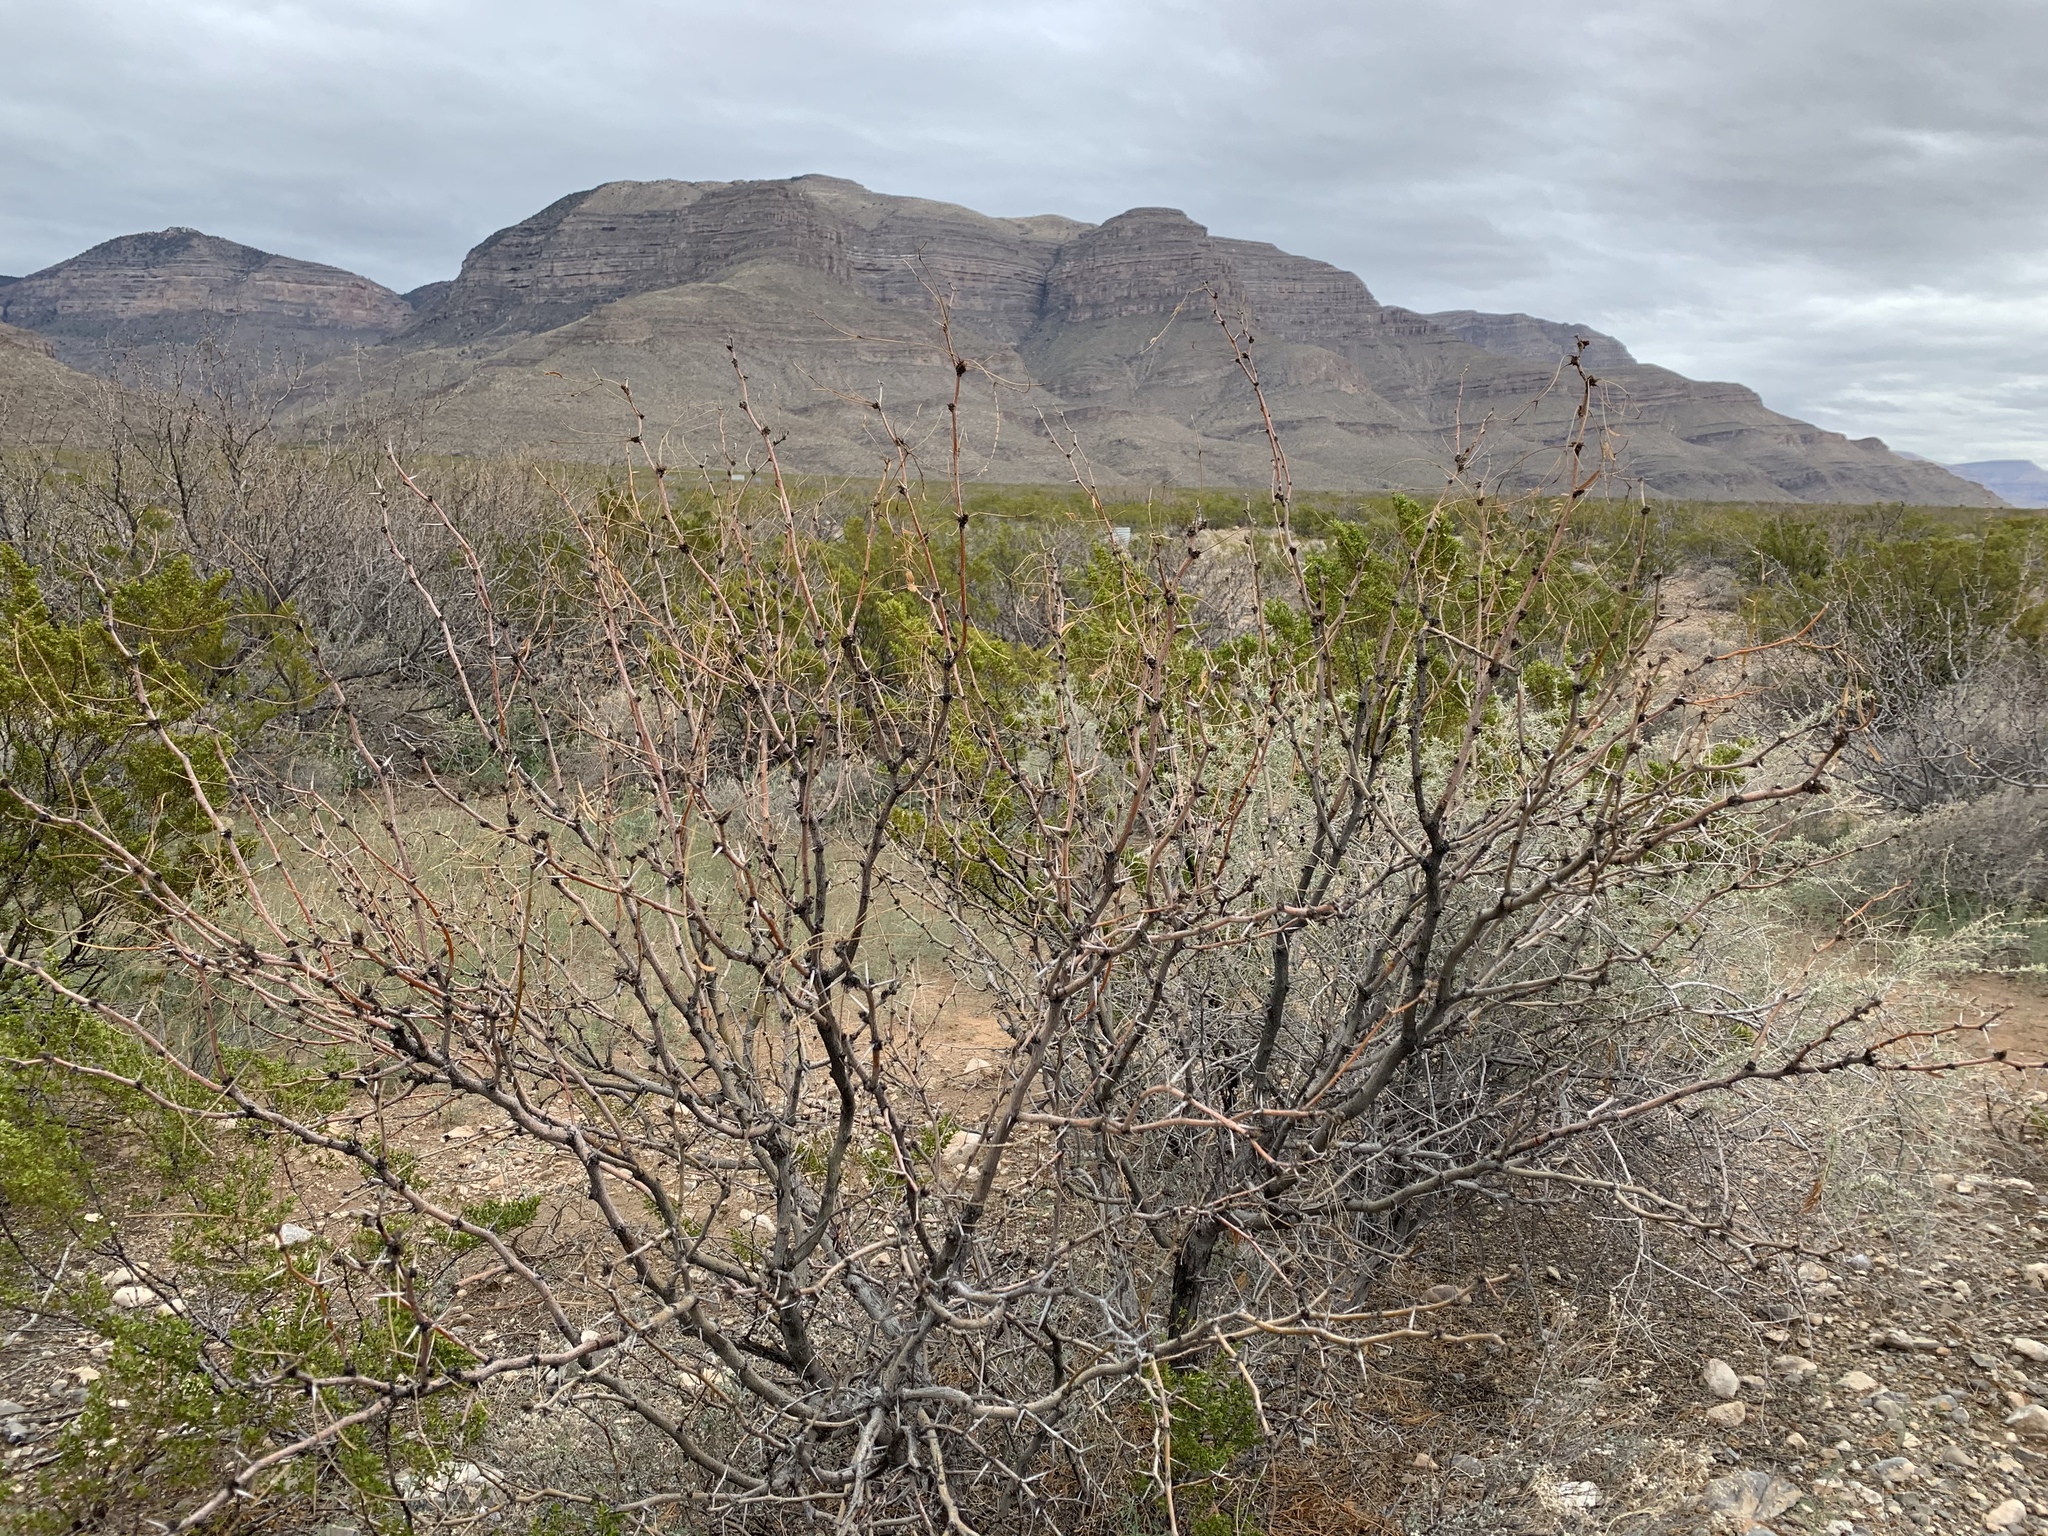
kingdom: Plantae
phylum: Tracheophyta
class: Magnoliopsida
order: Fabales
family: Fabaceae
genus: Prosopis
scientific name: Prosopis glandulosa
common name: Honey mesquite
